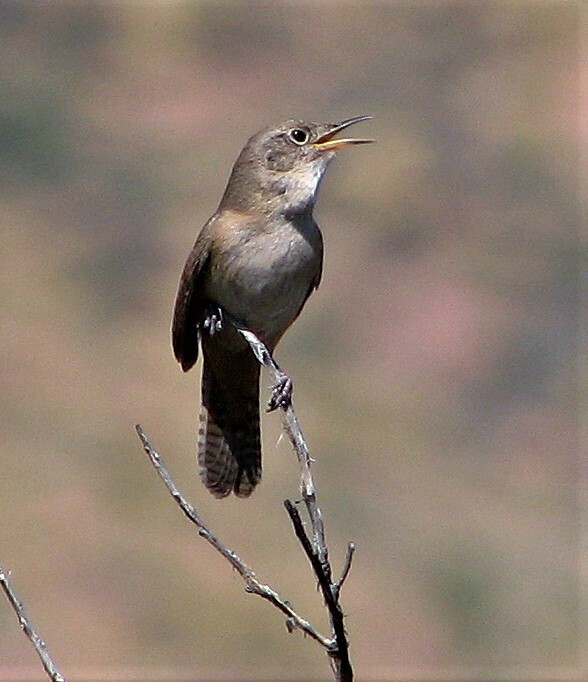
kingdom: Animalia
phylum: Chordata
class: Aves
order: Passeriformes
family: Troglodytidae
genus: Troglodytes
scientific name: Troglodytes aedon
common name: House wren
